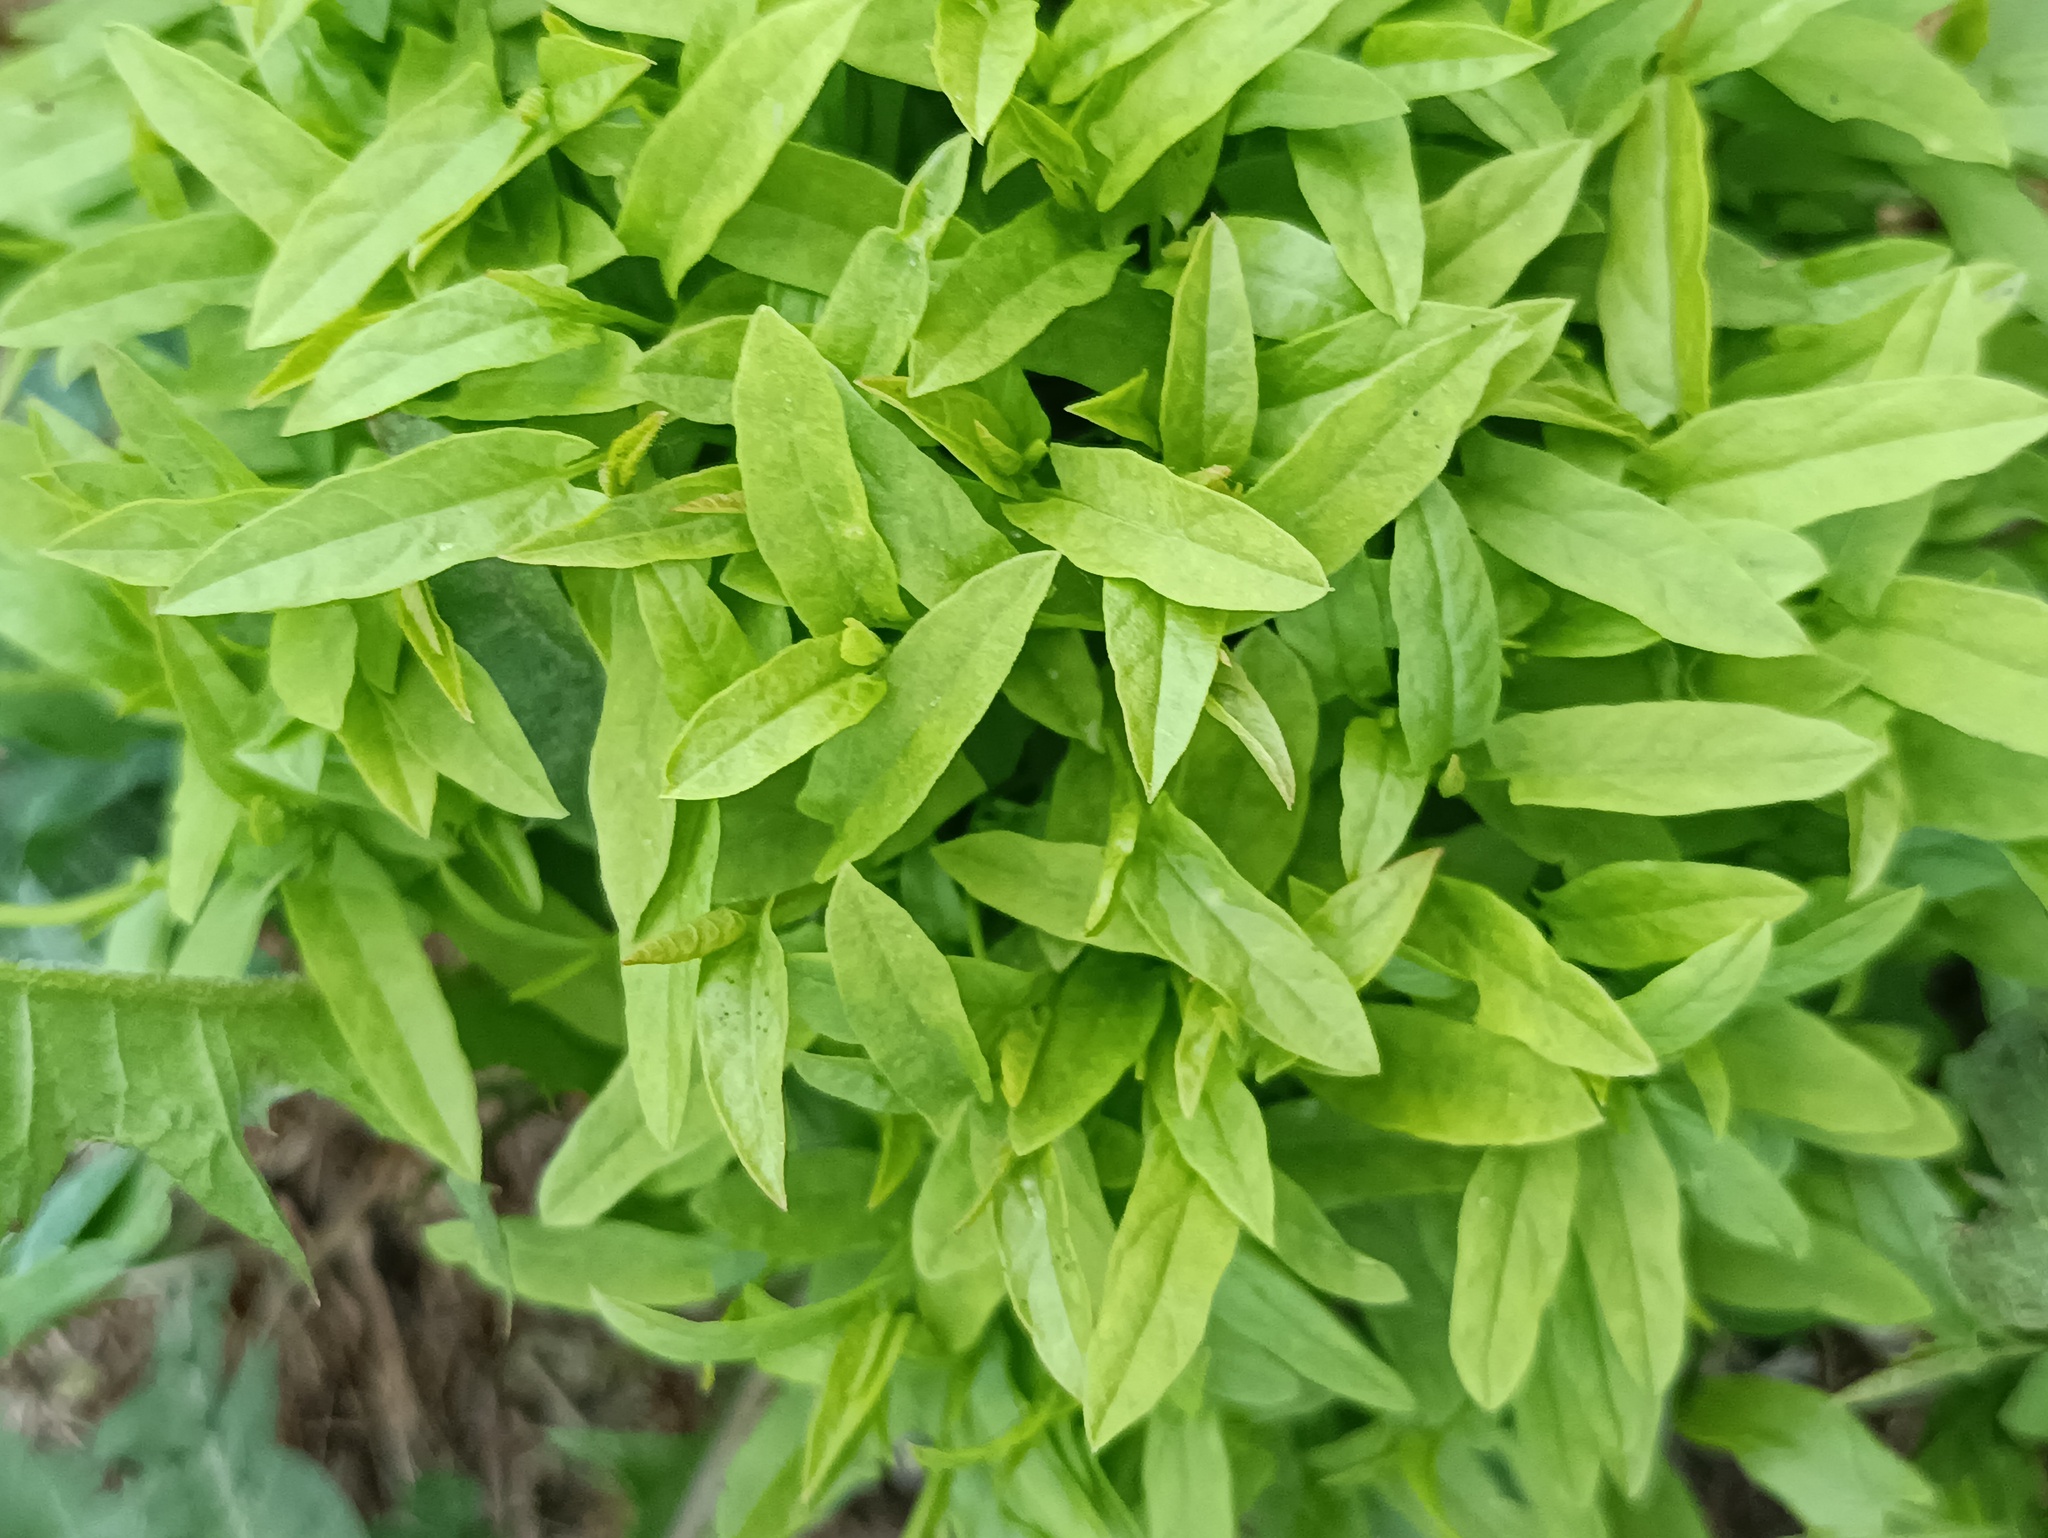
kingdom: Plantae
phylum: Tracheophyta
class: Magnoliopsida
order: Solanales
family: Convolvulaceae
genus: Convolvulus
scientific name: Convolvulus arvensis
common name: Field bindweed
